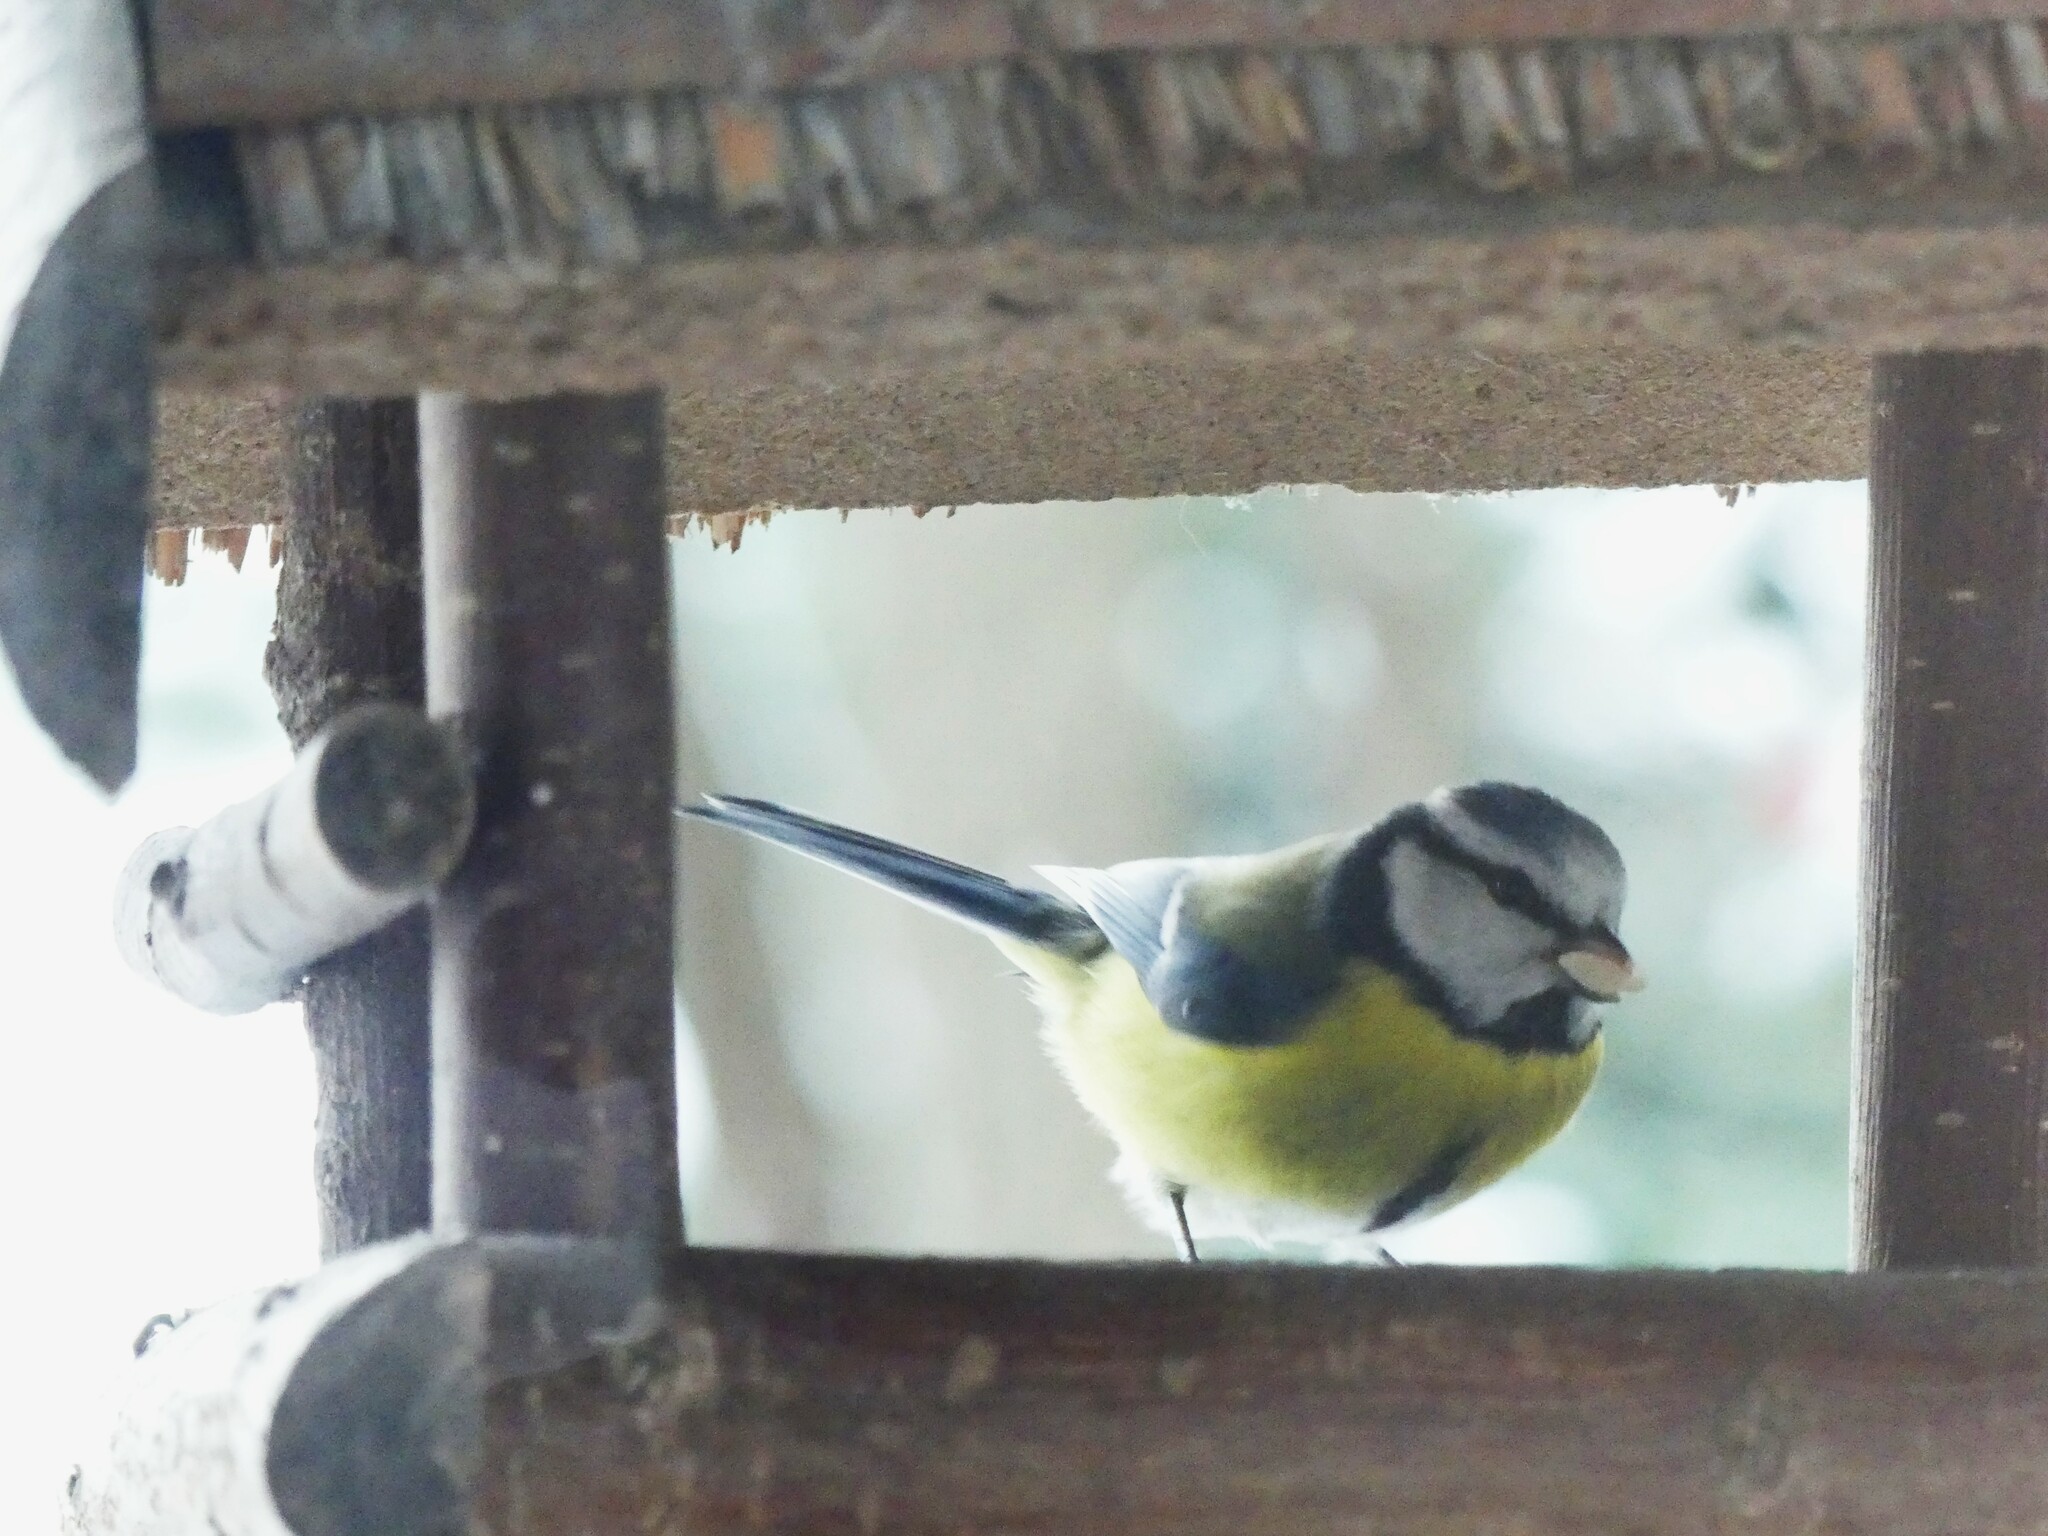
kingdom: Animalia
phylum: Chordata
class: Aves
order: Passeriformes
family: Paridae
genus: Cyanistes
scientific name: Cyanistes caeruleus
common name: Eurasian blue tit
